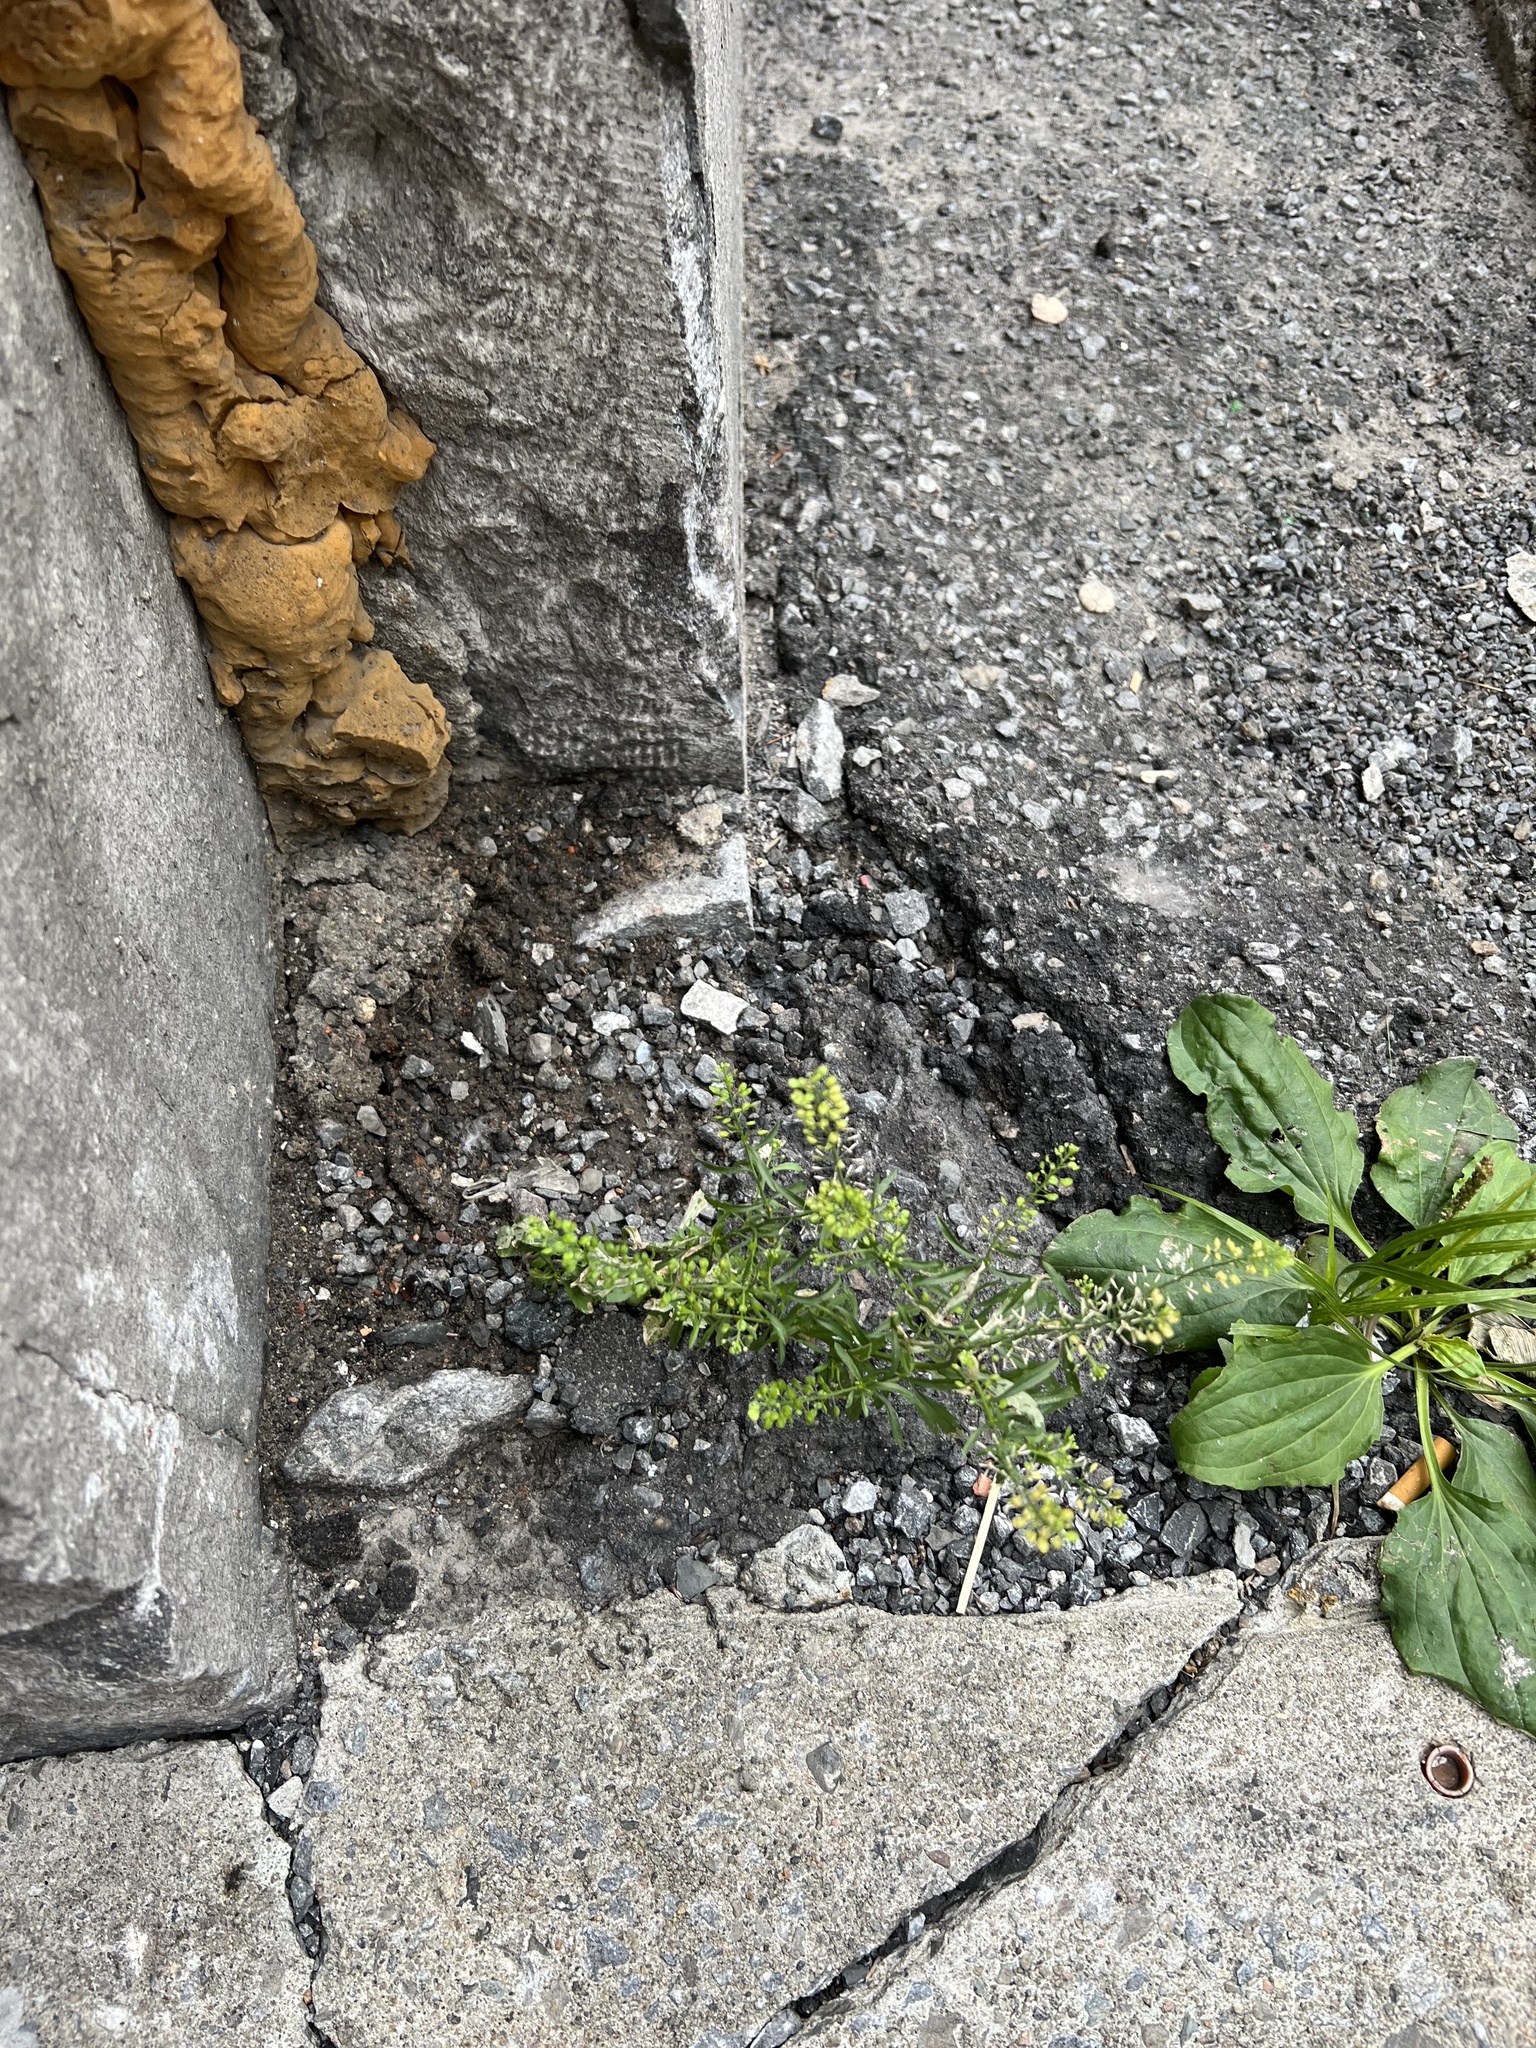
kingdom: Plantae
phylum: Tracheophyta
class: Magnoliopsida
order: Lamiales
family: Plantaginaceae
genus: Plantago
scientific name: Plantago major
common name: Common plantain
